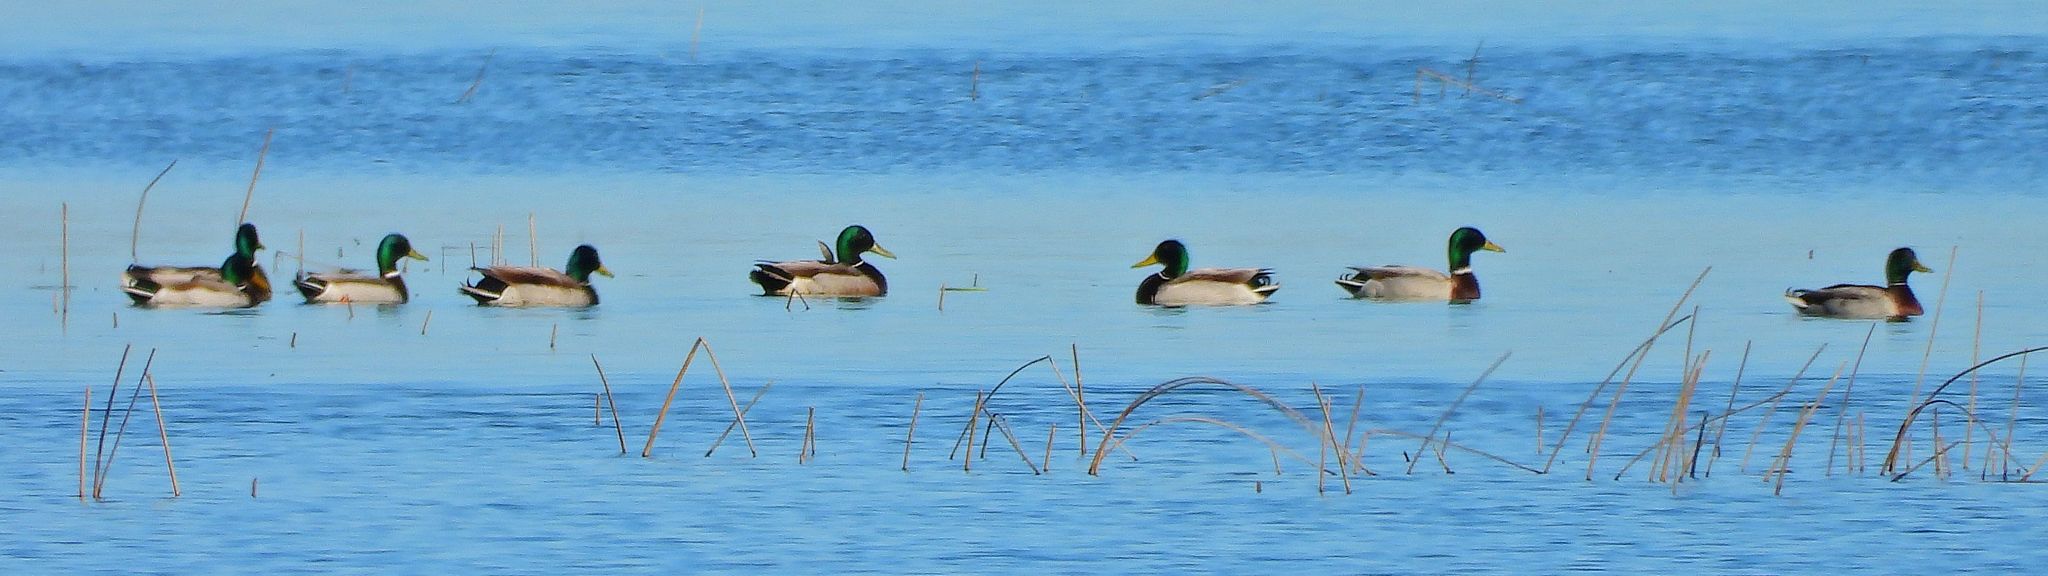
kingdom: Animalia
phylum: Chordata
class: Aves
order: Anseriformes
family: Anatidae
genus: Anas
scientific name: Anas platyrhynchos
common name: Mallard
